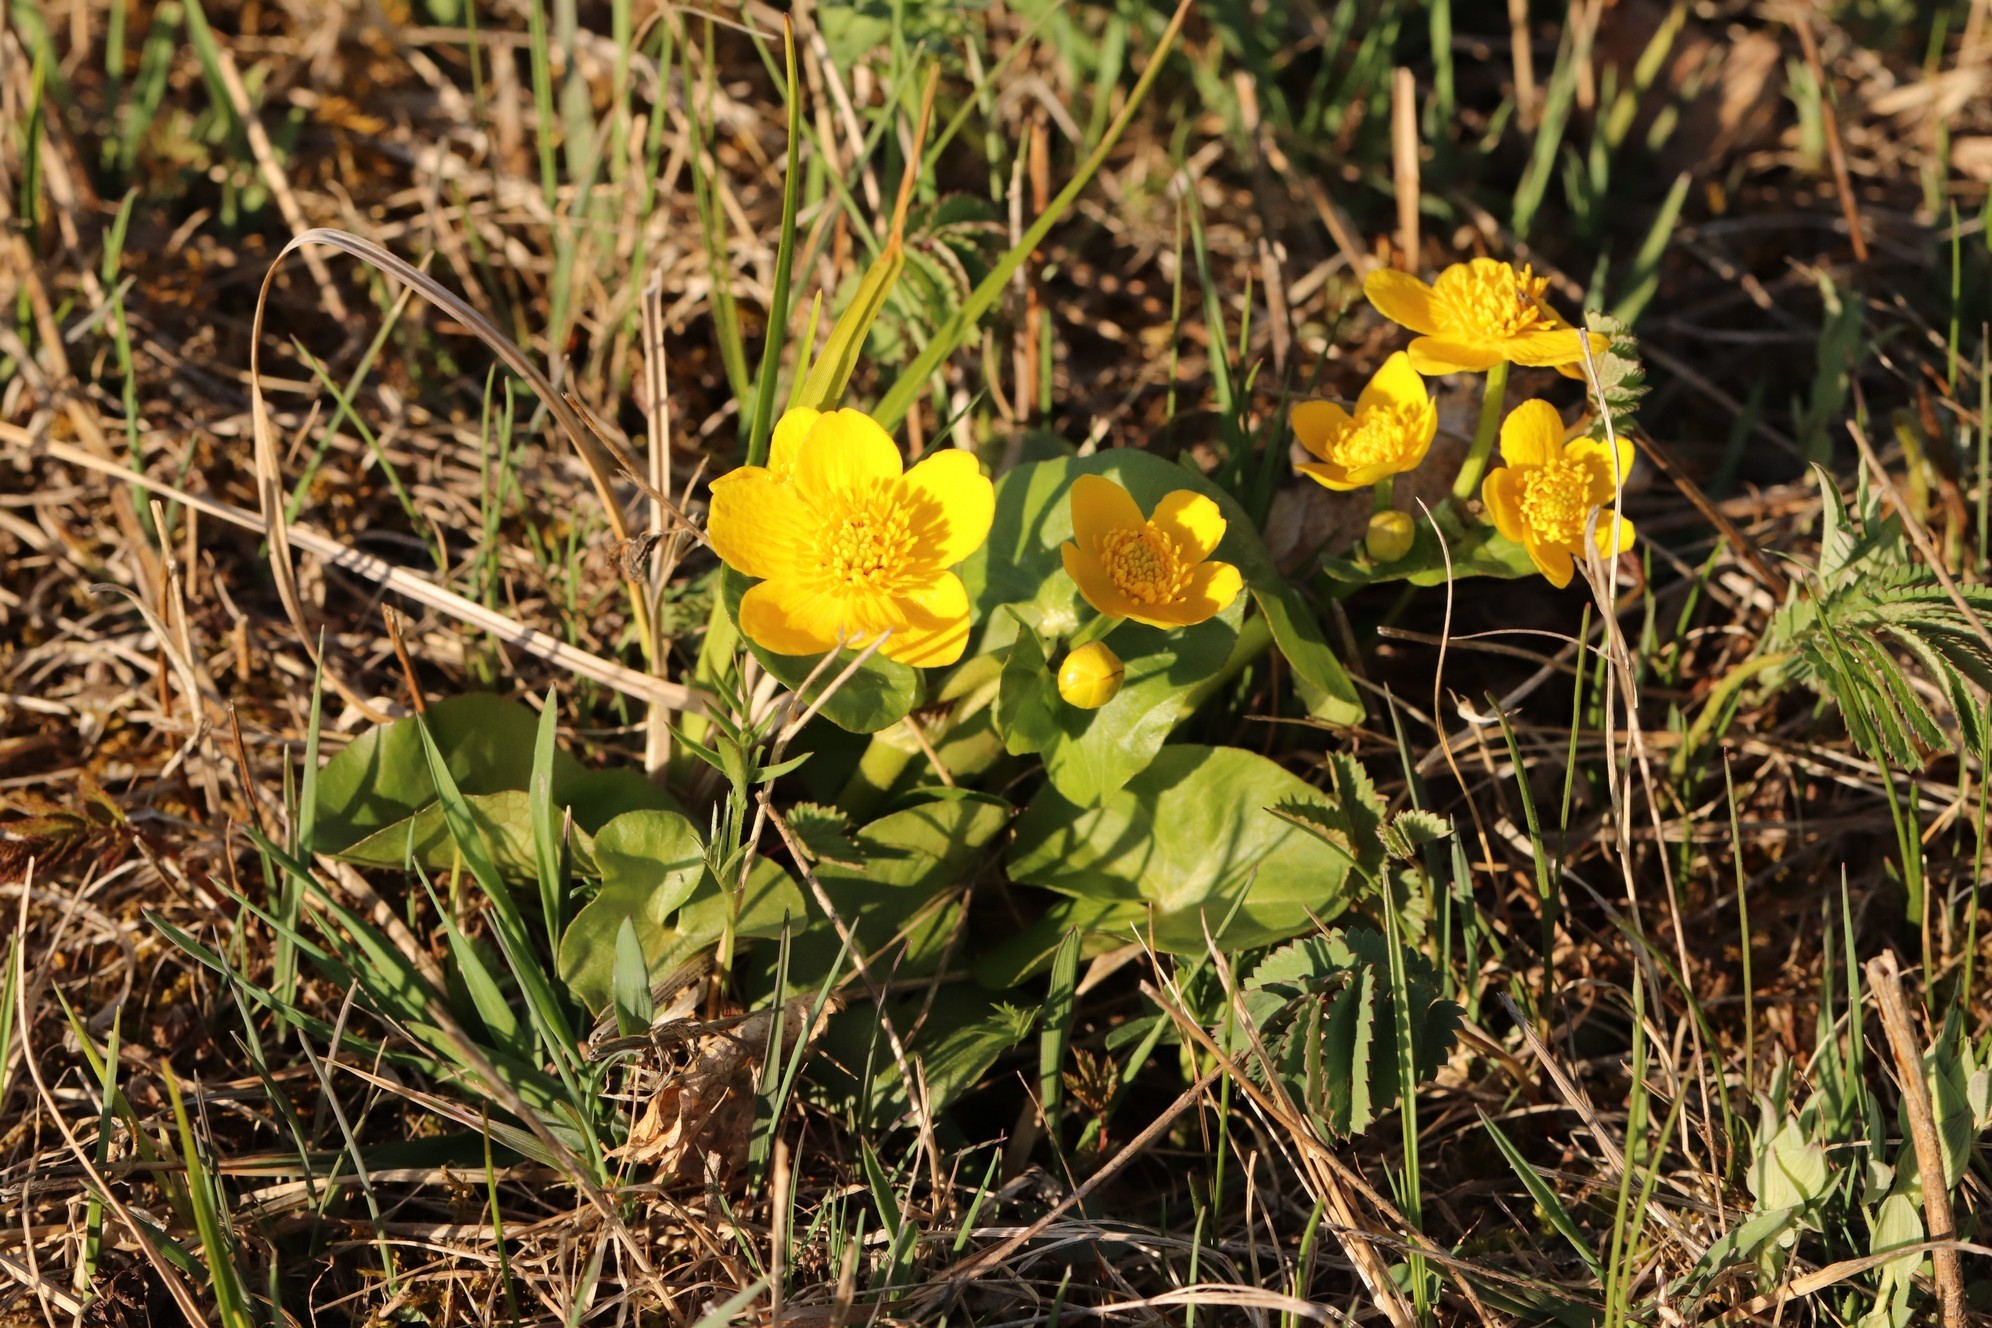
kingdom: Plantae
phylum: Tracheophyta
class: Magnoliopsida
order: Ranunculales
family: Ranunculaceae
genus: Caltha
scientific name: Caltha palustris
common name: Marsh marigold
